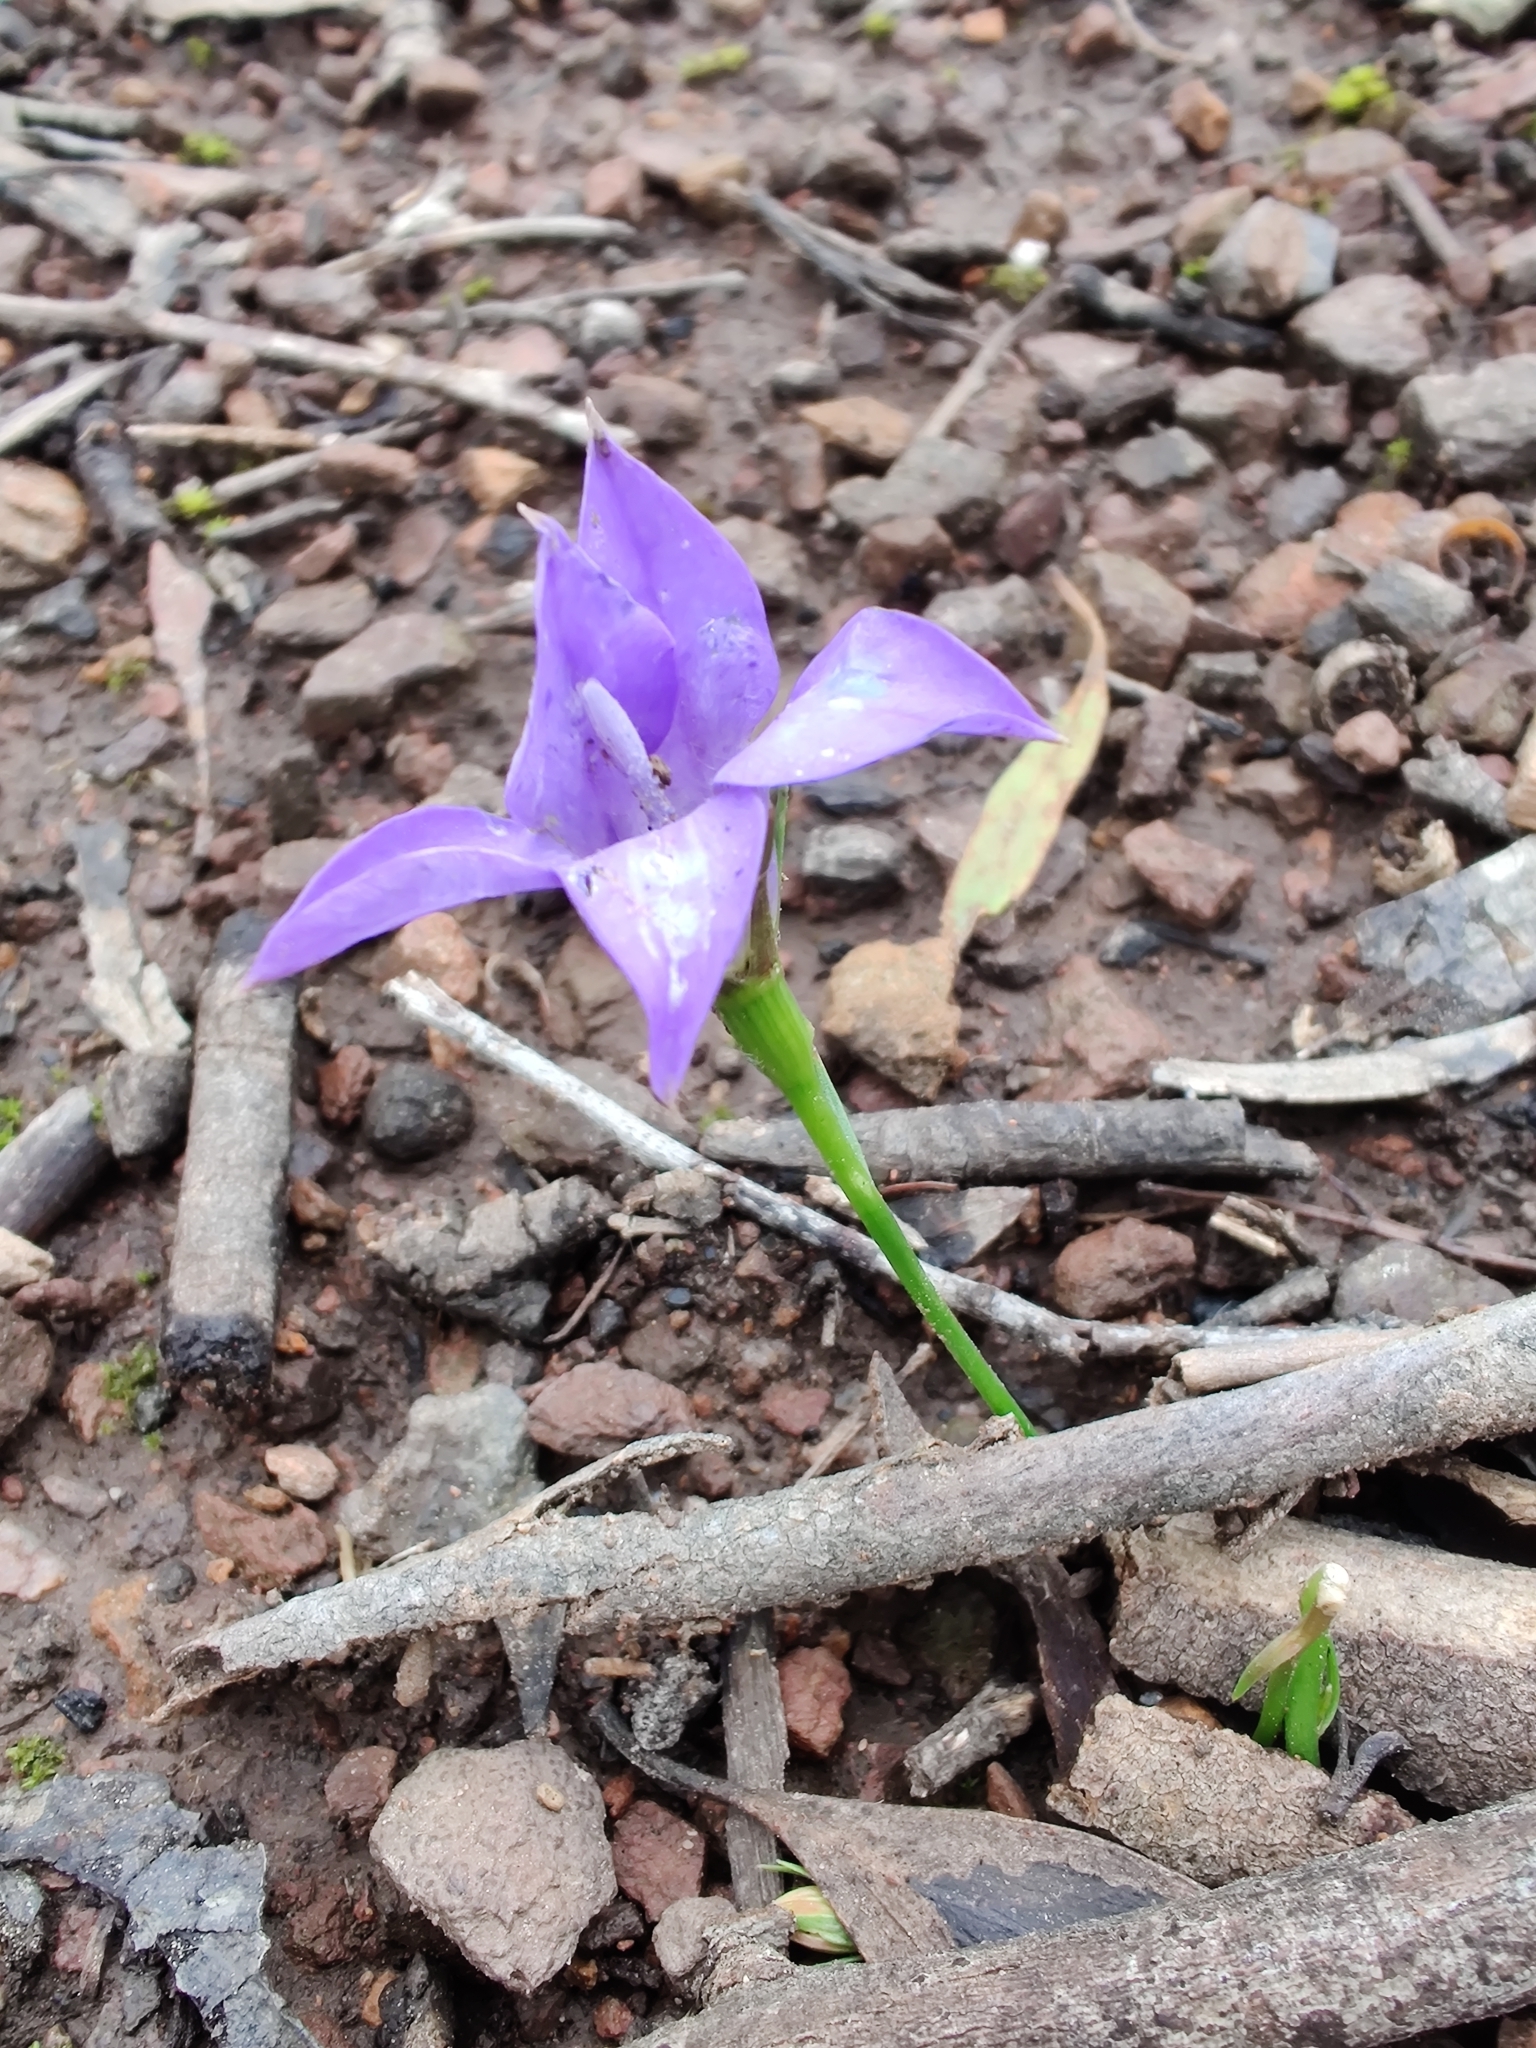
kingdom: Plantae
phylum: Tracheophyta
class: Magnoliopsida
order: Asterales
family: Campanulaceae
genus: Wahlenbergia
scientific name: Wahlenbergia
